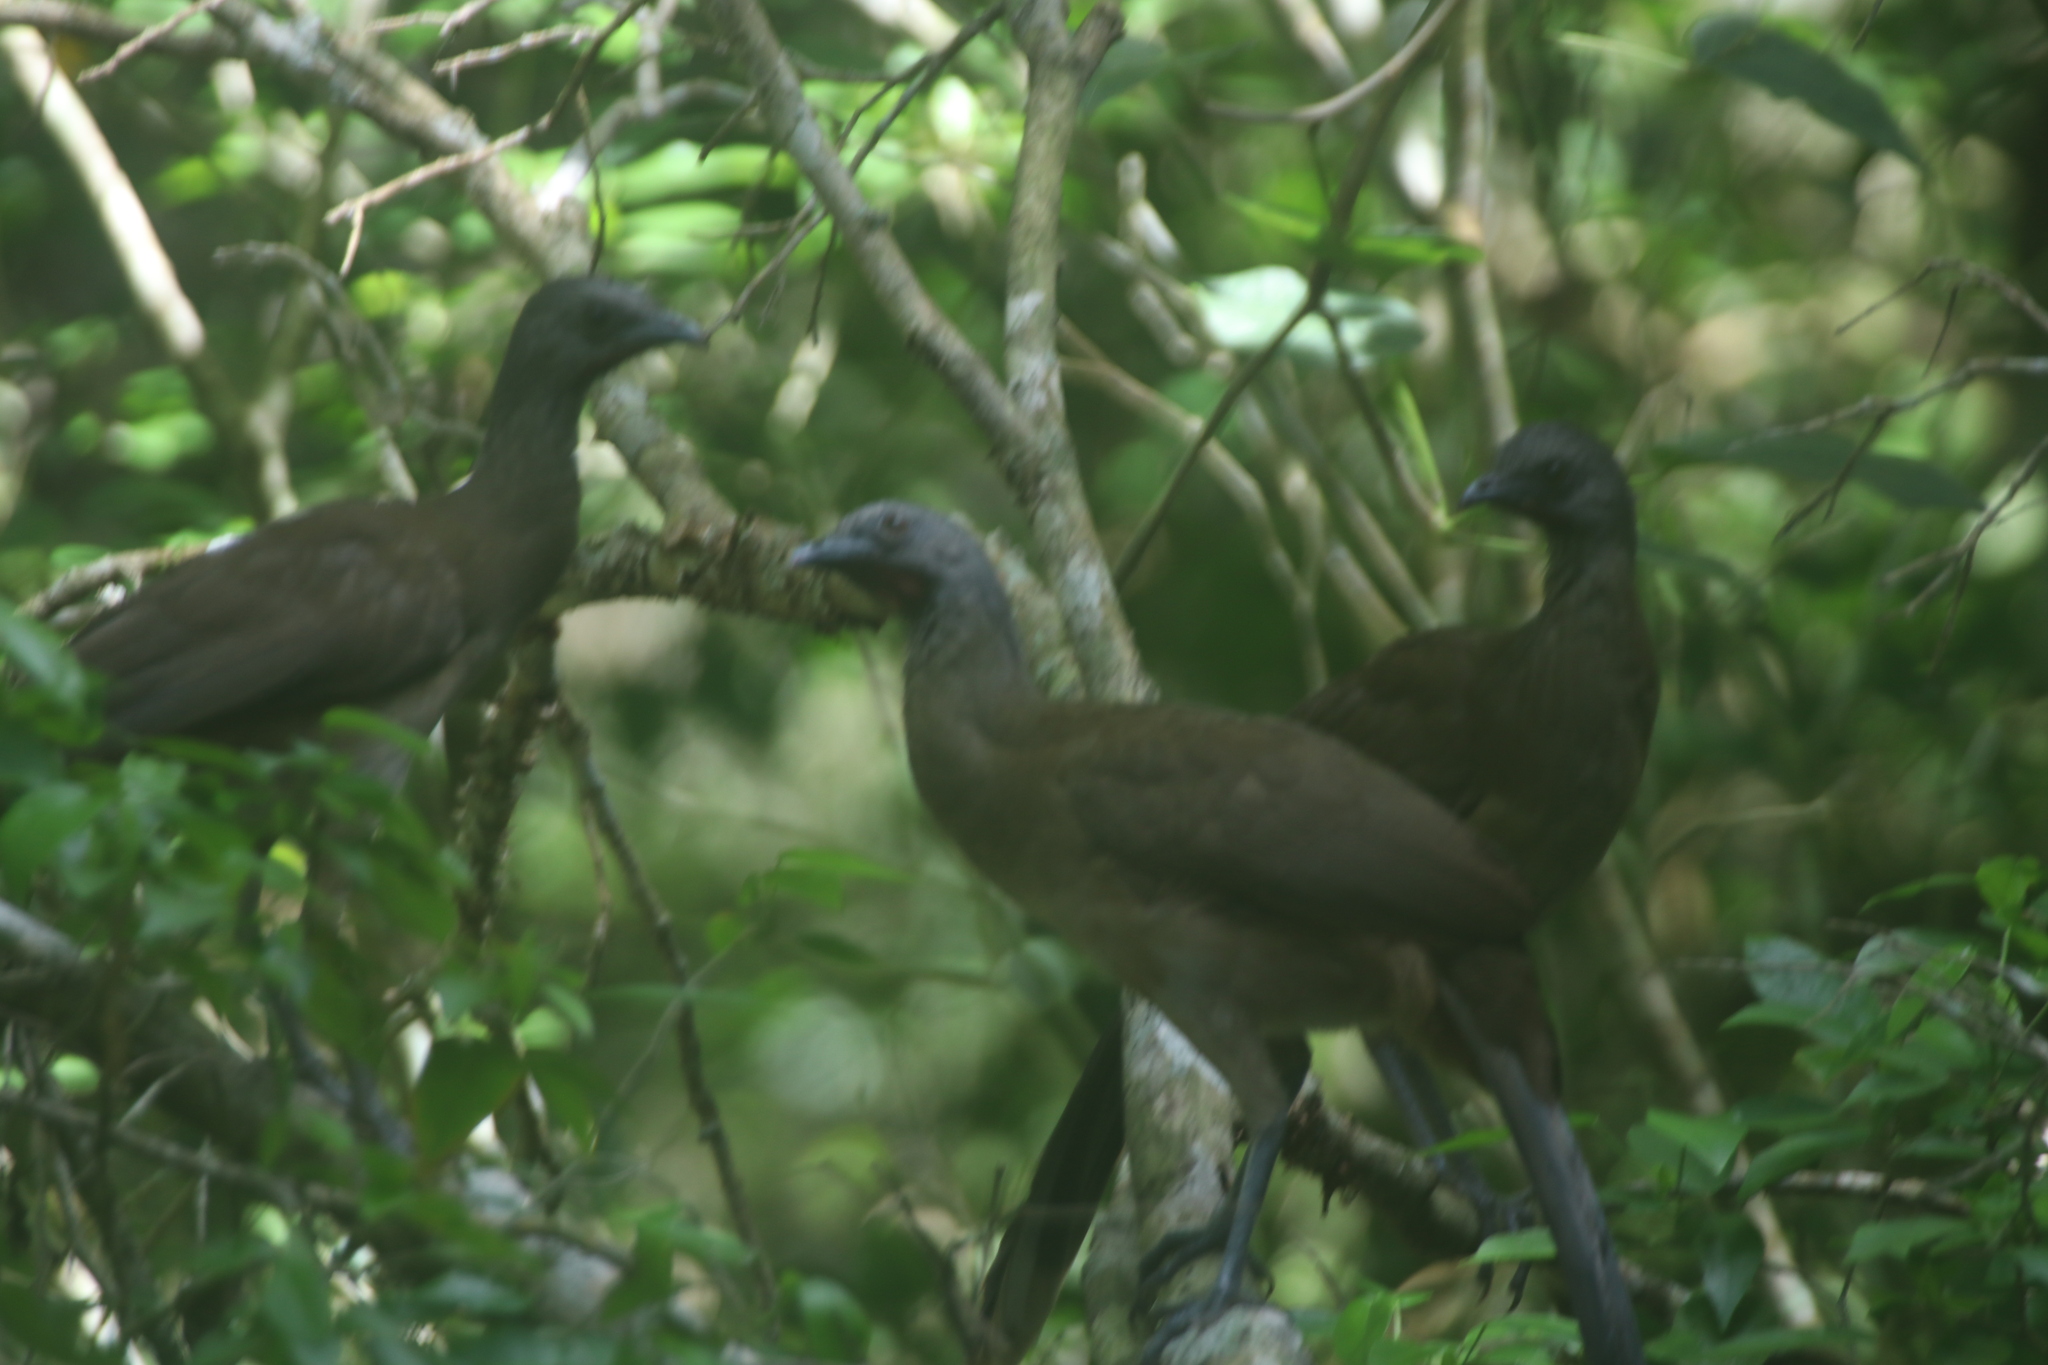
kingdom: Animalia
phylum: Chordata
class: Aves
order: Galliformes
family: Cracidae
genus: Ortalis
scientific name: Ortalis vetula
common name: Plain chachalaca
